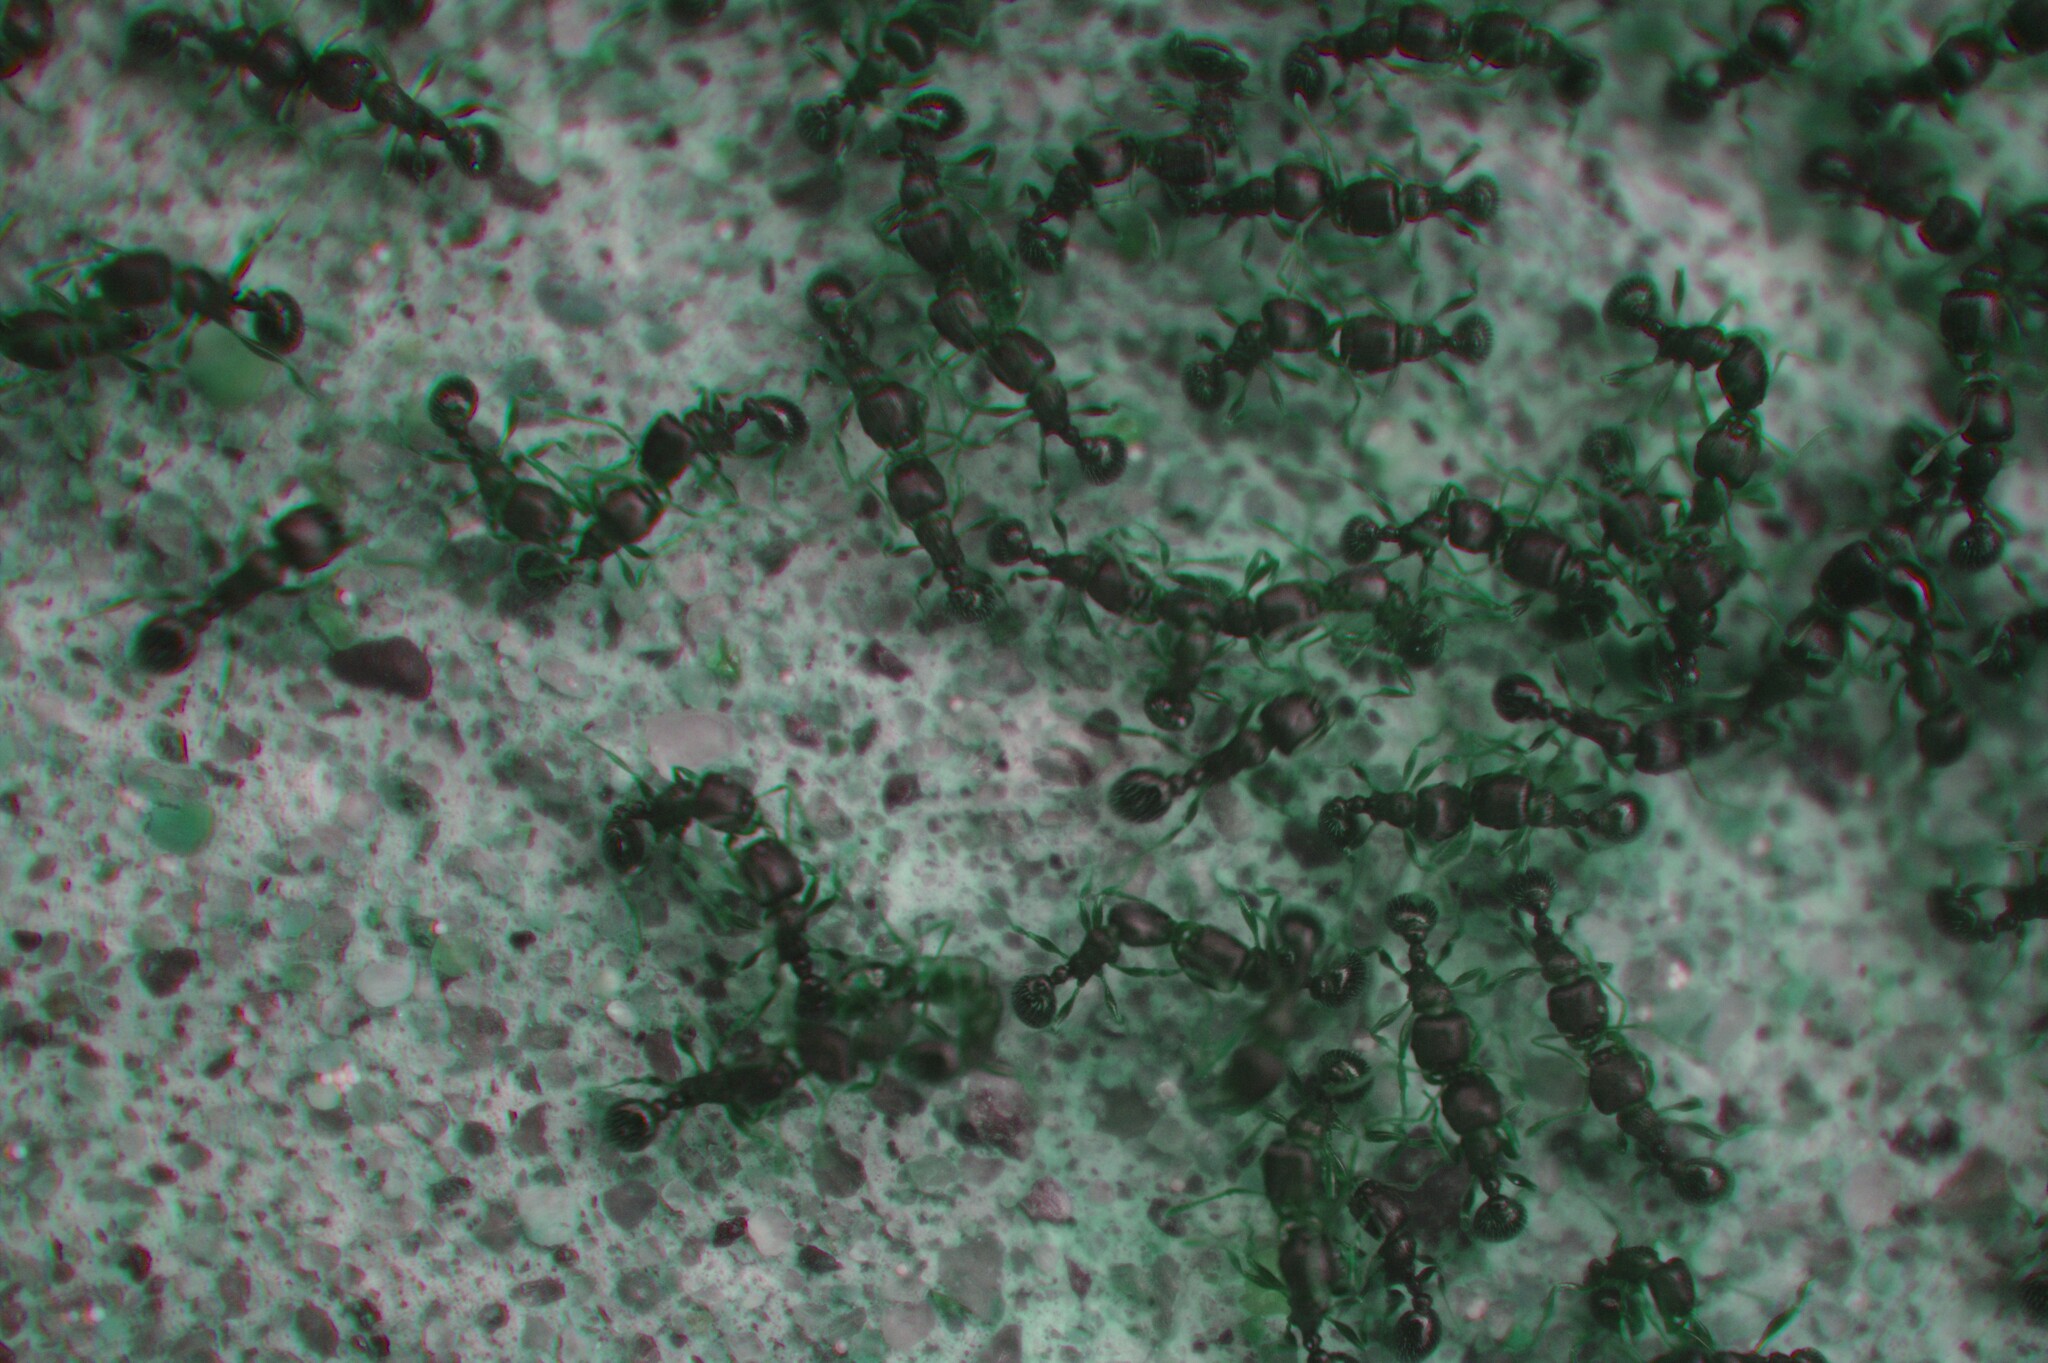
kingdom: Animalia
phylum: Arthropoda
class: Insecta
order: Hymenoptera
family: Formicidae
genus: Tetramorium
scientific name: Tetramorium immigrans
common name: Pavement ant
